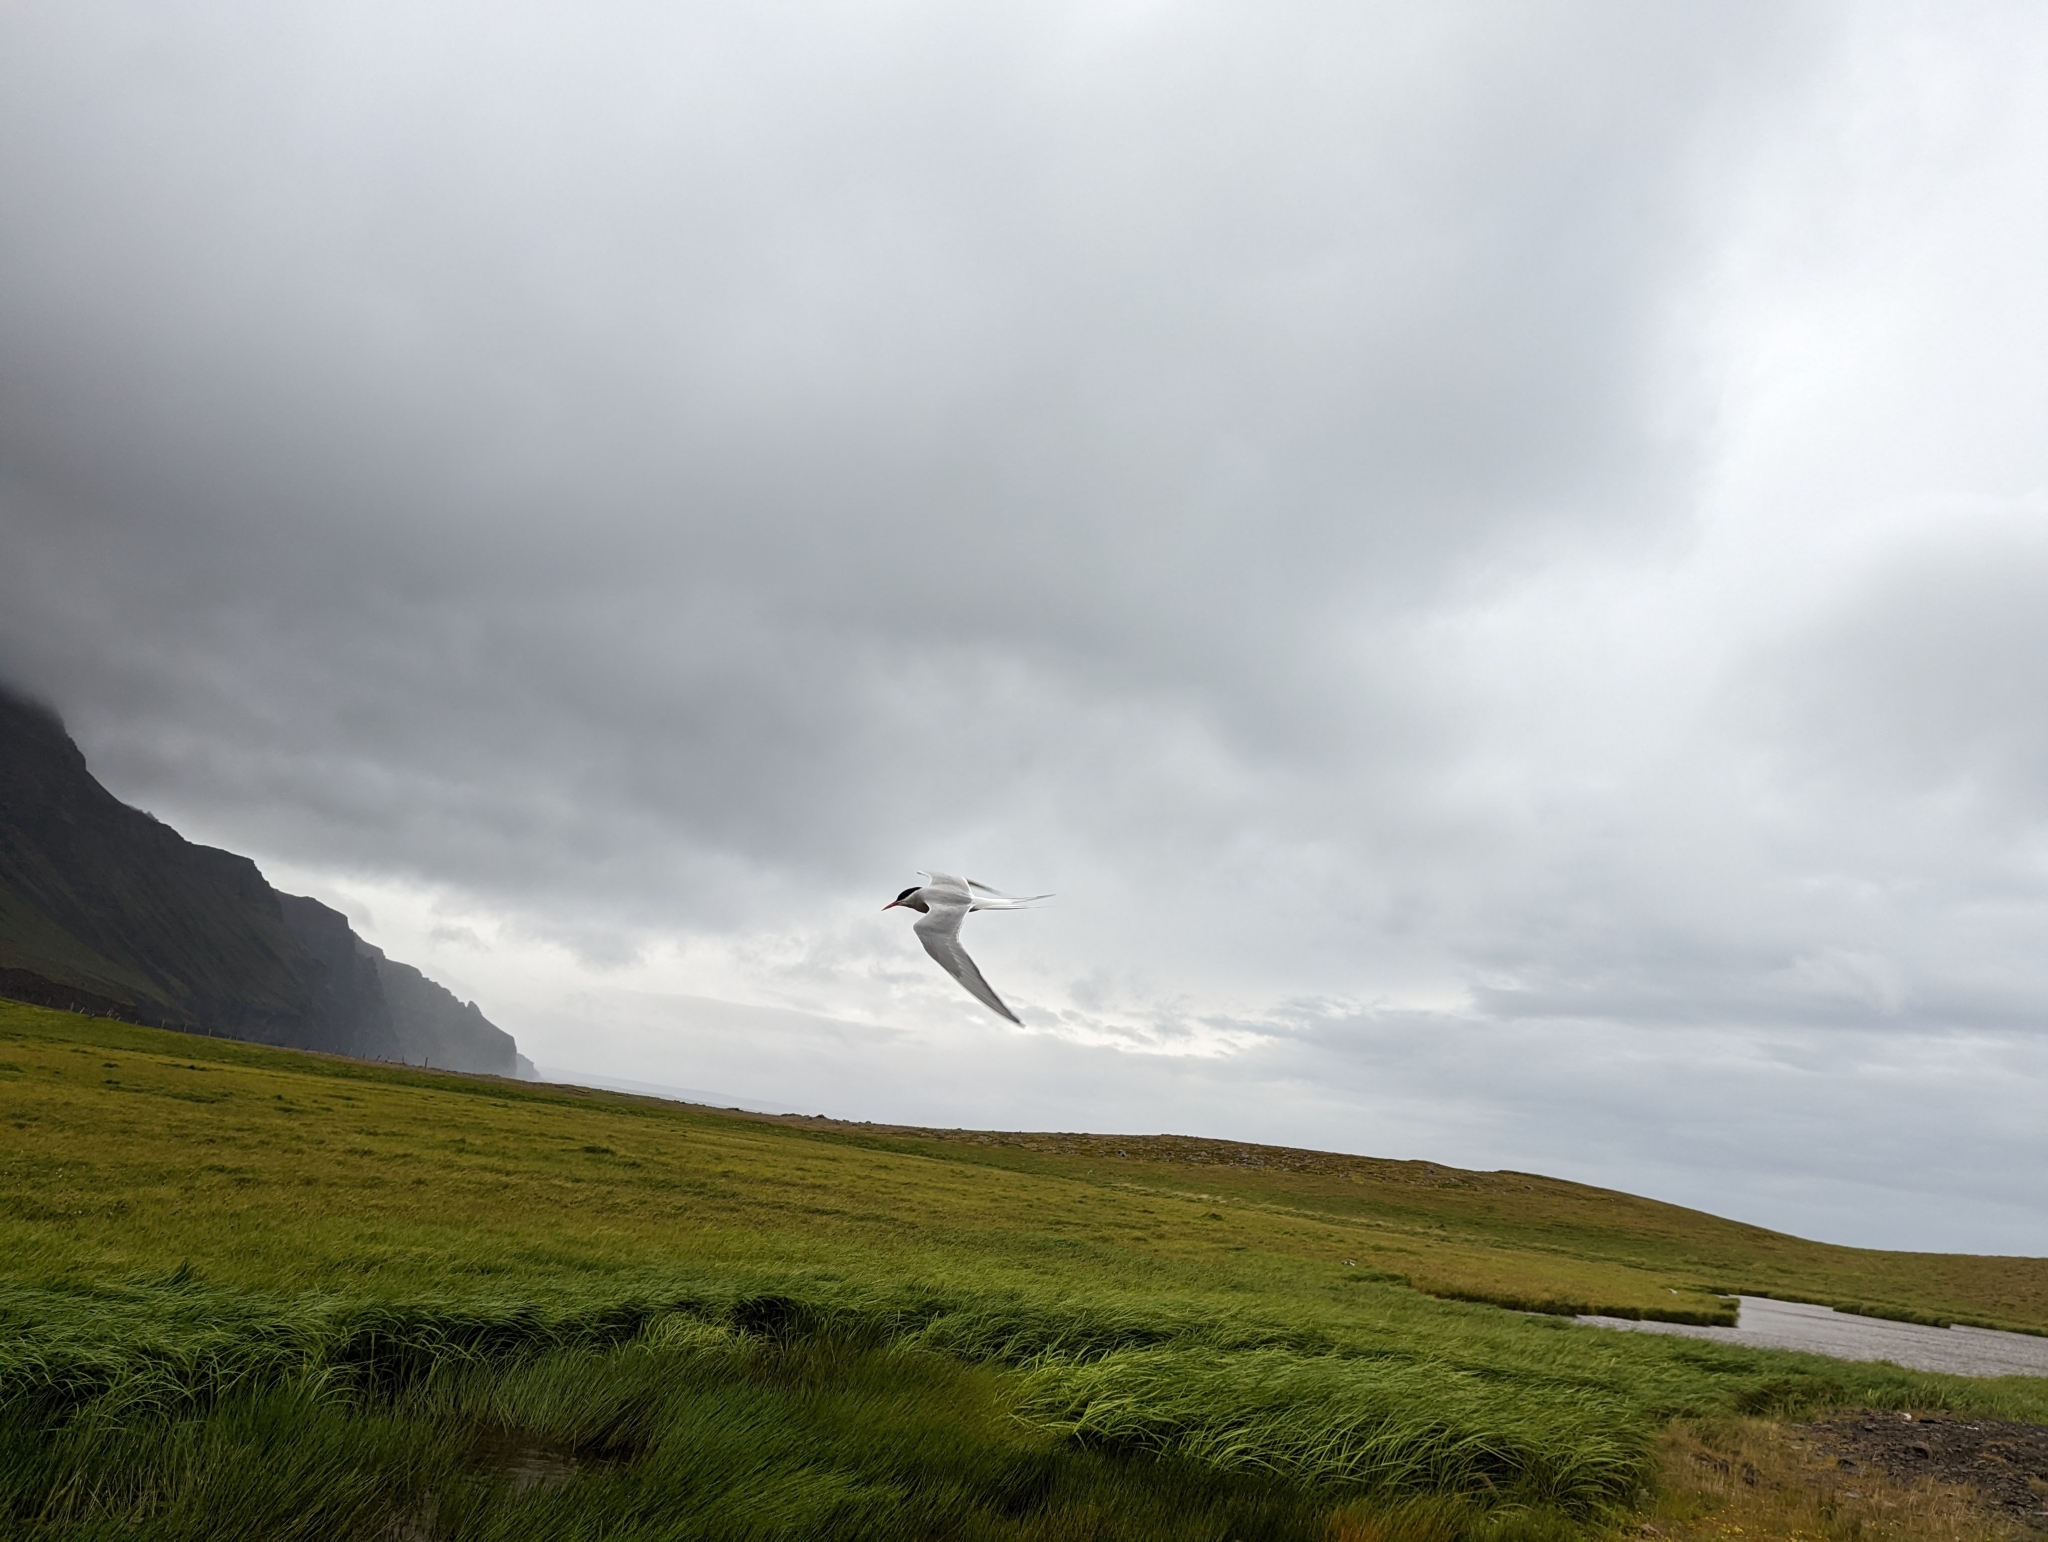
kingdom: Animalia
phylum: Chordata
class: Aves
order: Charadriiformes
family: Laridae
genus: Sterna
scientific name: Sterna paradisaea
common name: Arctic tern
